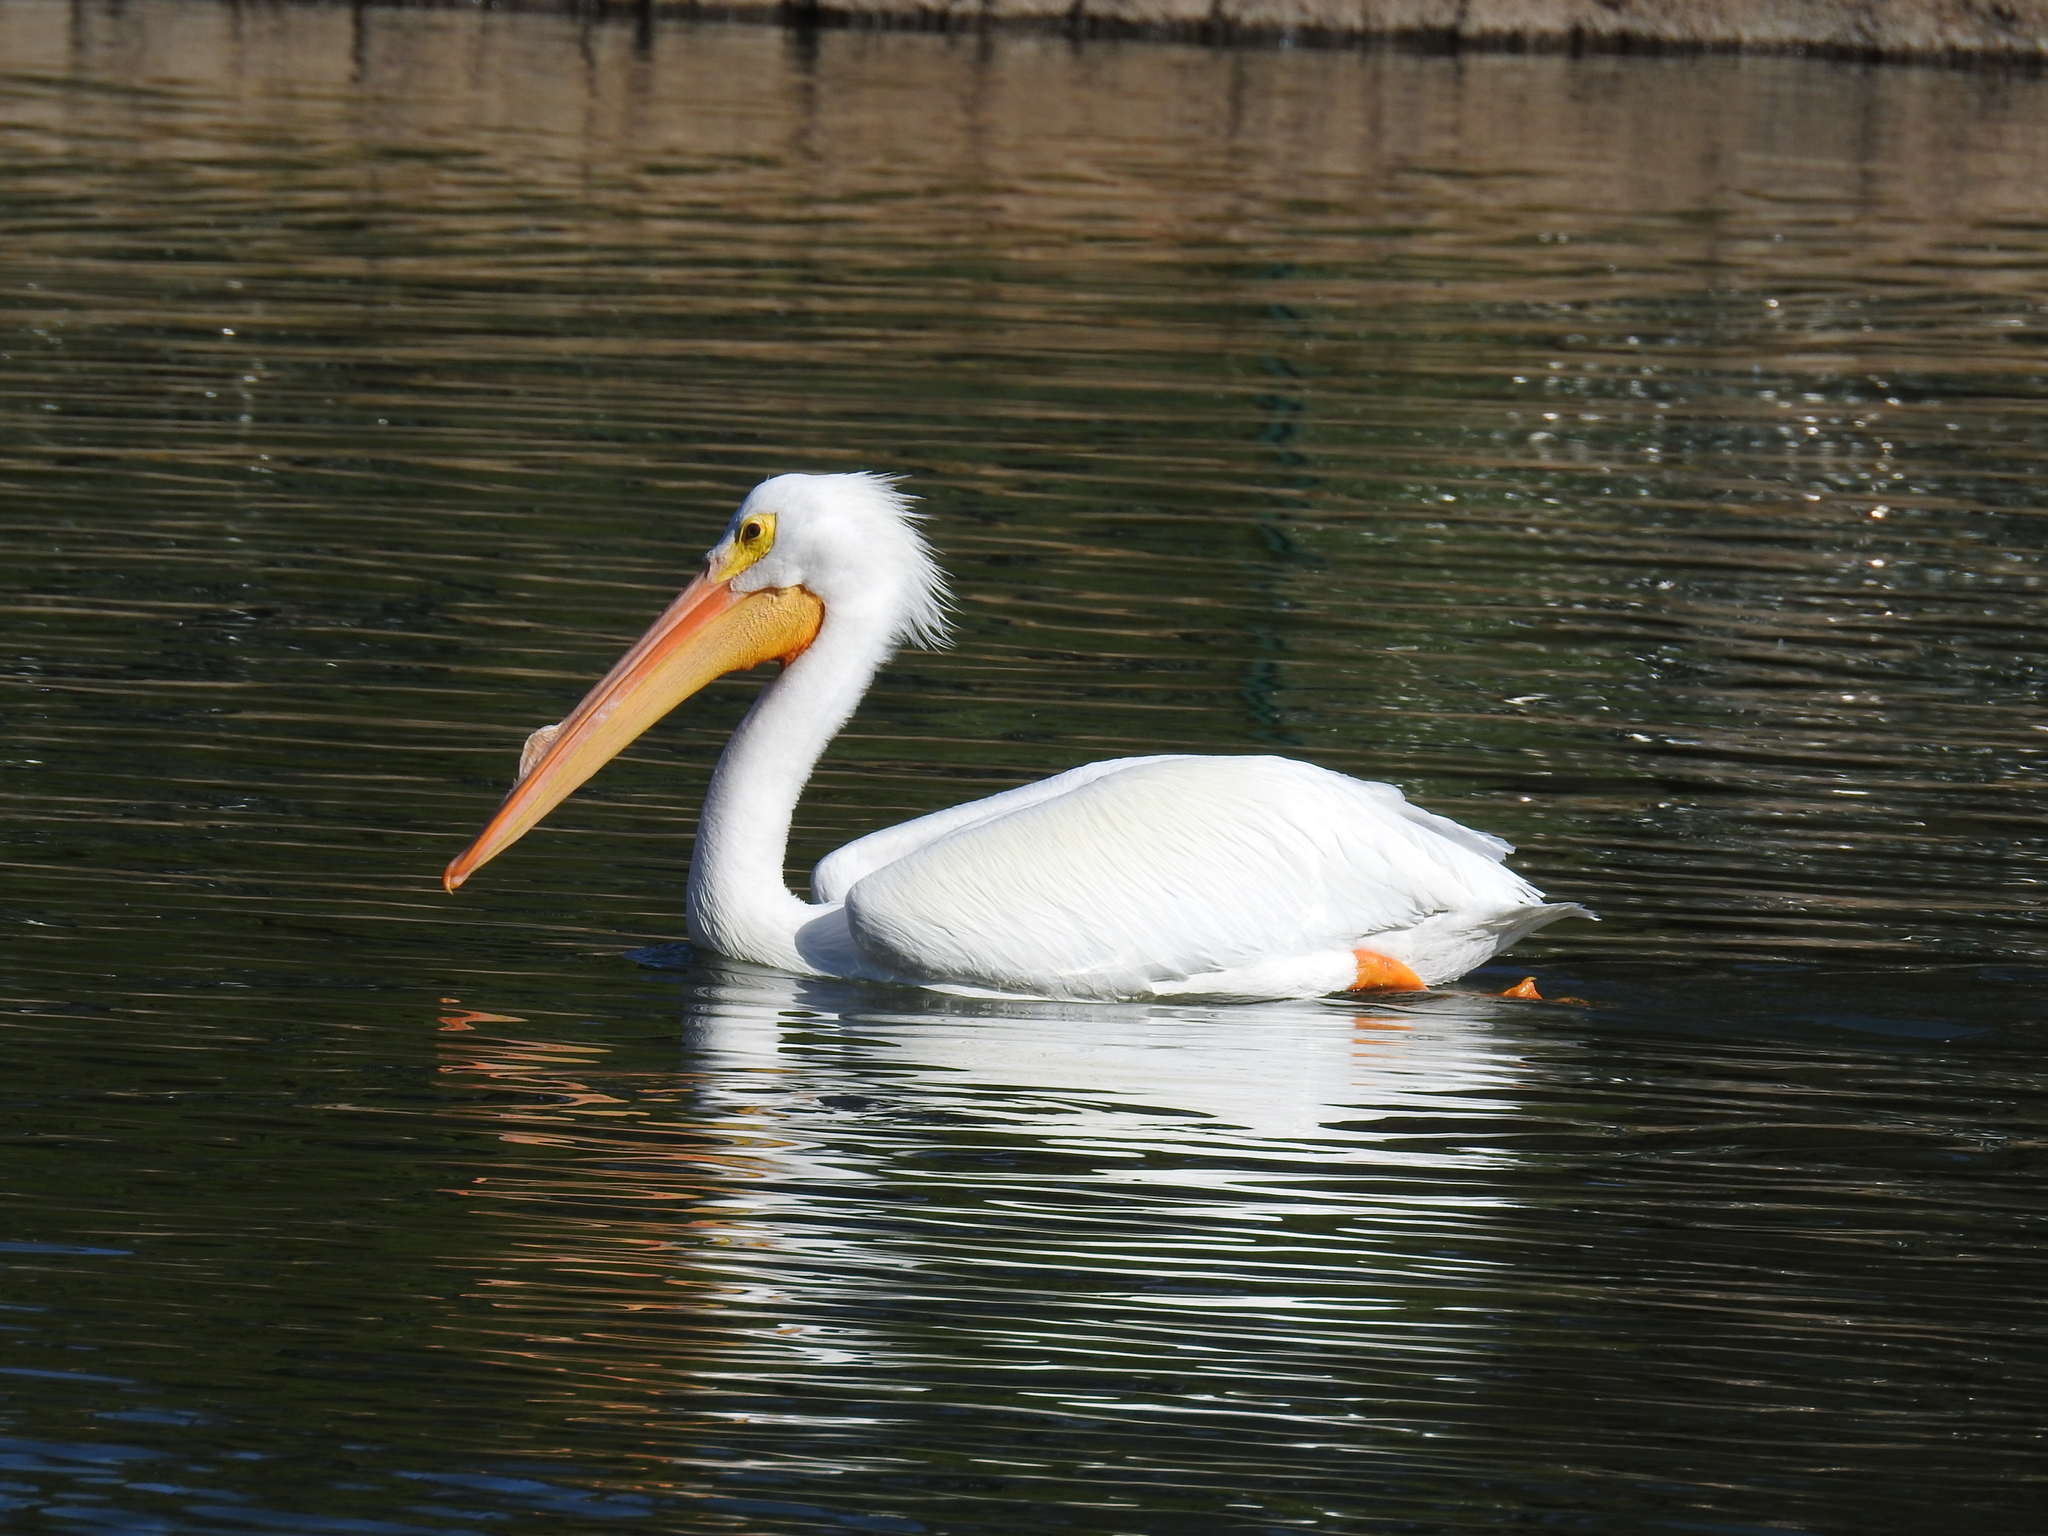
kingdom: Animalia
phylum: Chordata
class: Aves
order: Pelecaniformes
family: Pelecanidae
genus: Pelecanus
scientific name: Pelecanus erythrorhynchos
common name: American white pelican
